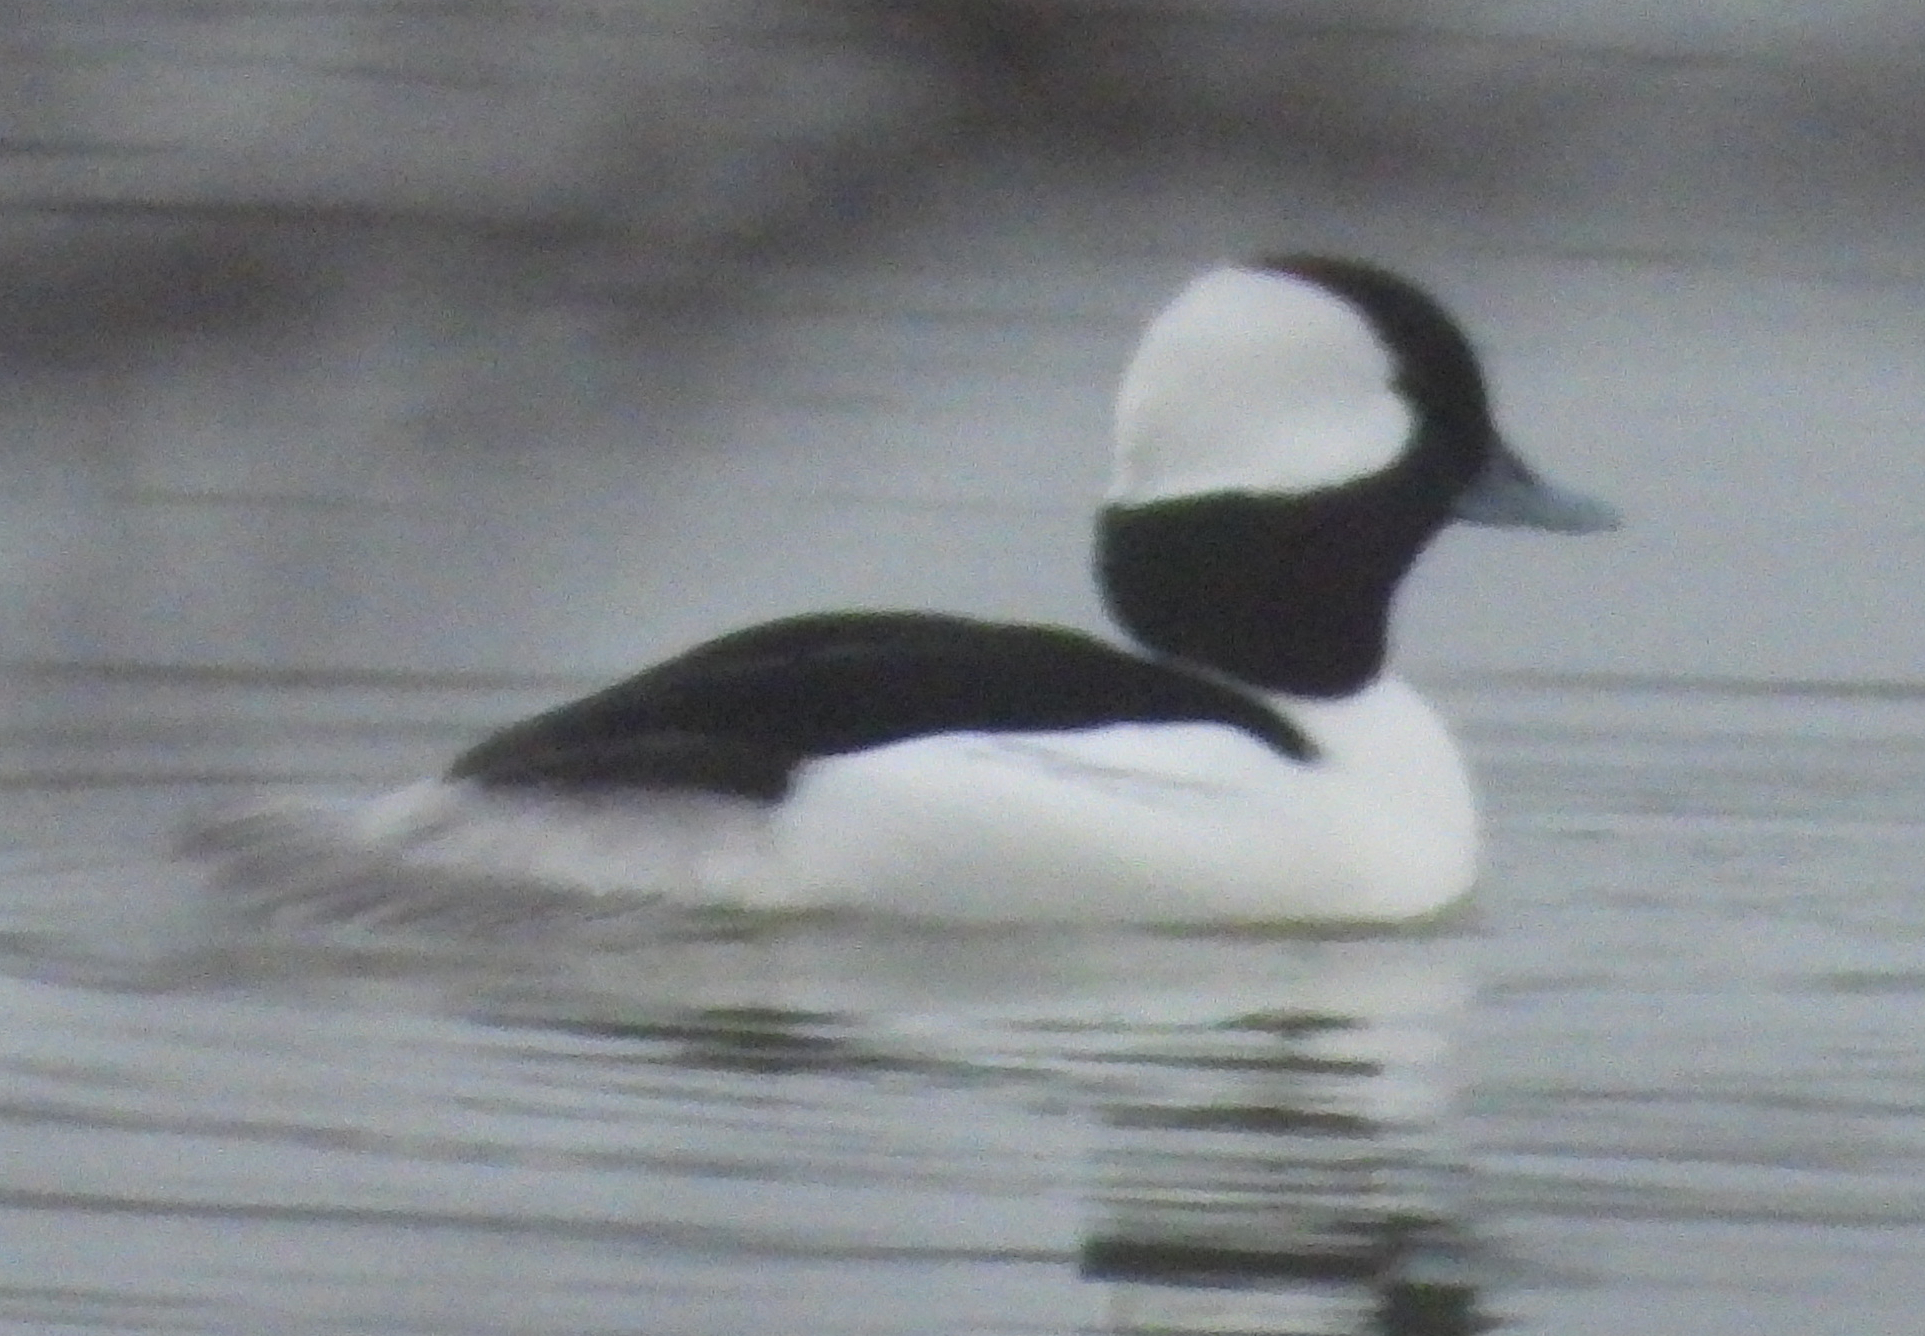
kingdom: Animalia
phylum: Chordata
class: Aves
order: Anseriformes
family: Anatidae
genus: Bucephala
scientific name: Bucephala albeola
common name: Bufflehead
